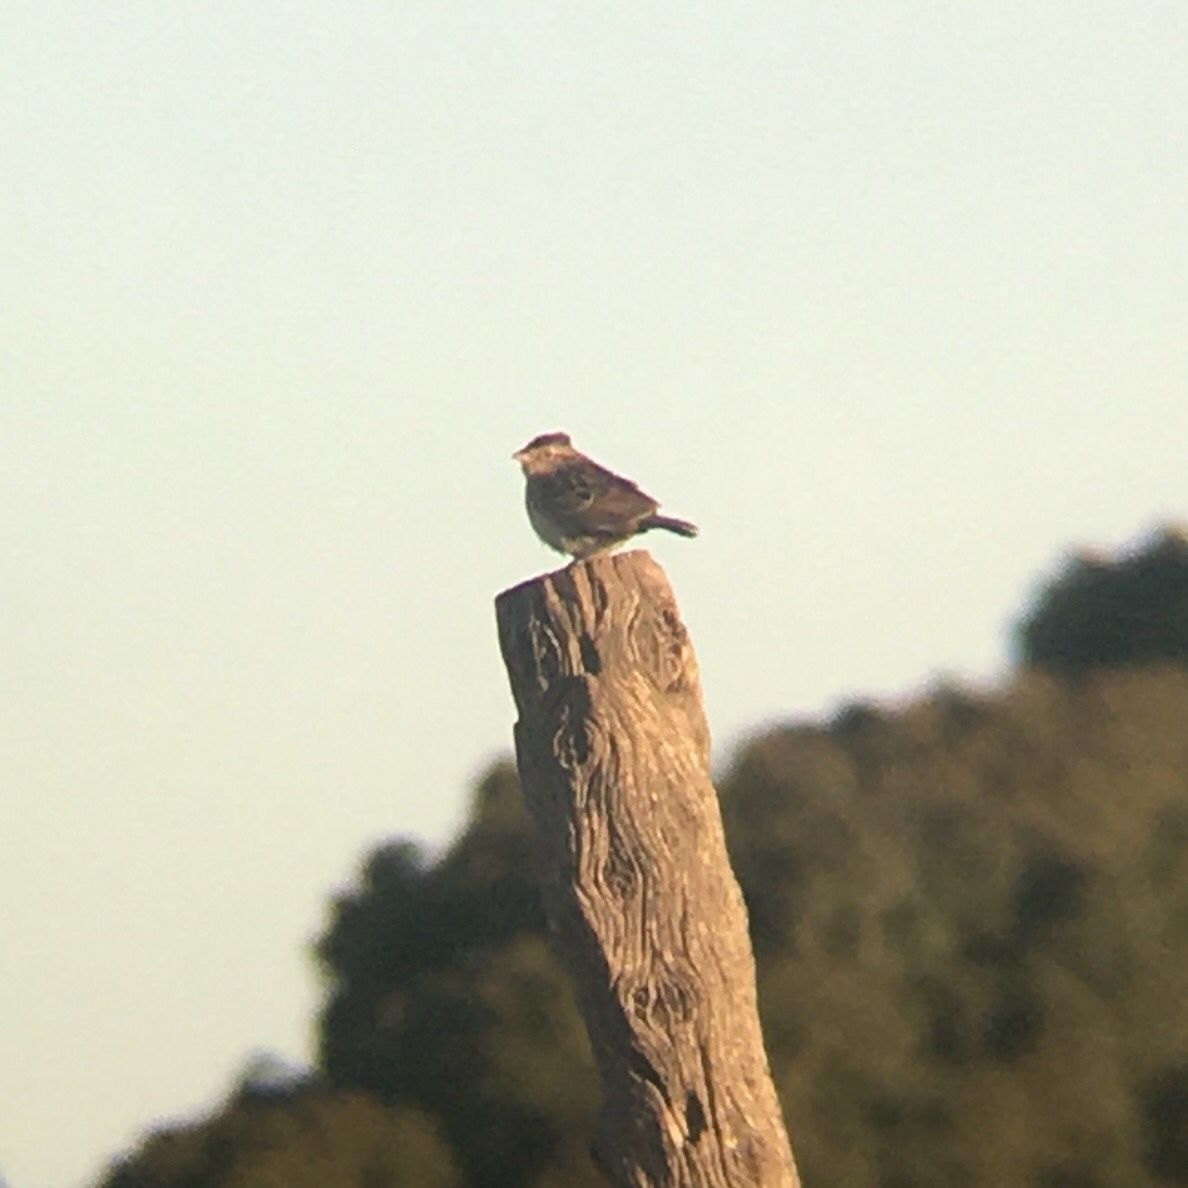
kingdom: Animalia
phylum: Chordata
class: Aves
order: Passeriformes
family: Passerellidae
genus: Ammodramus
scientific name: Ammodramus humeralis
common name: Grassland sparrow
